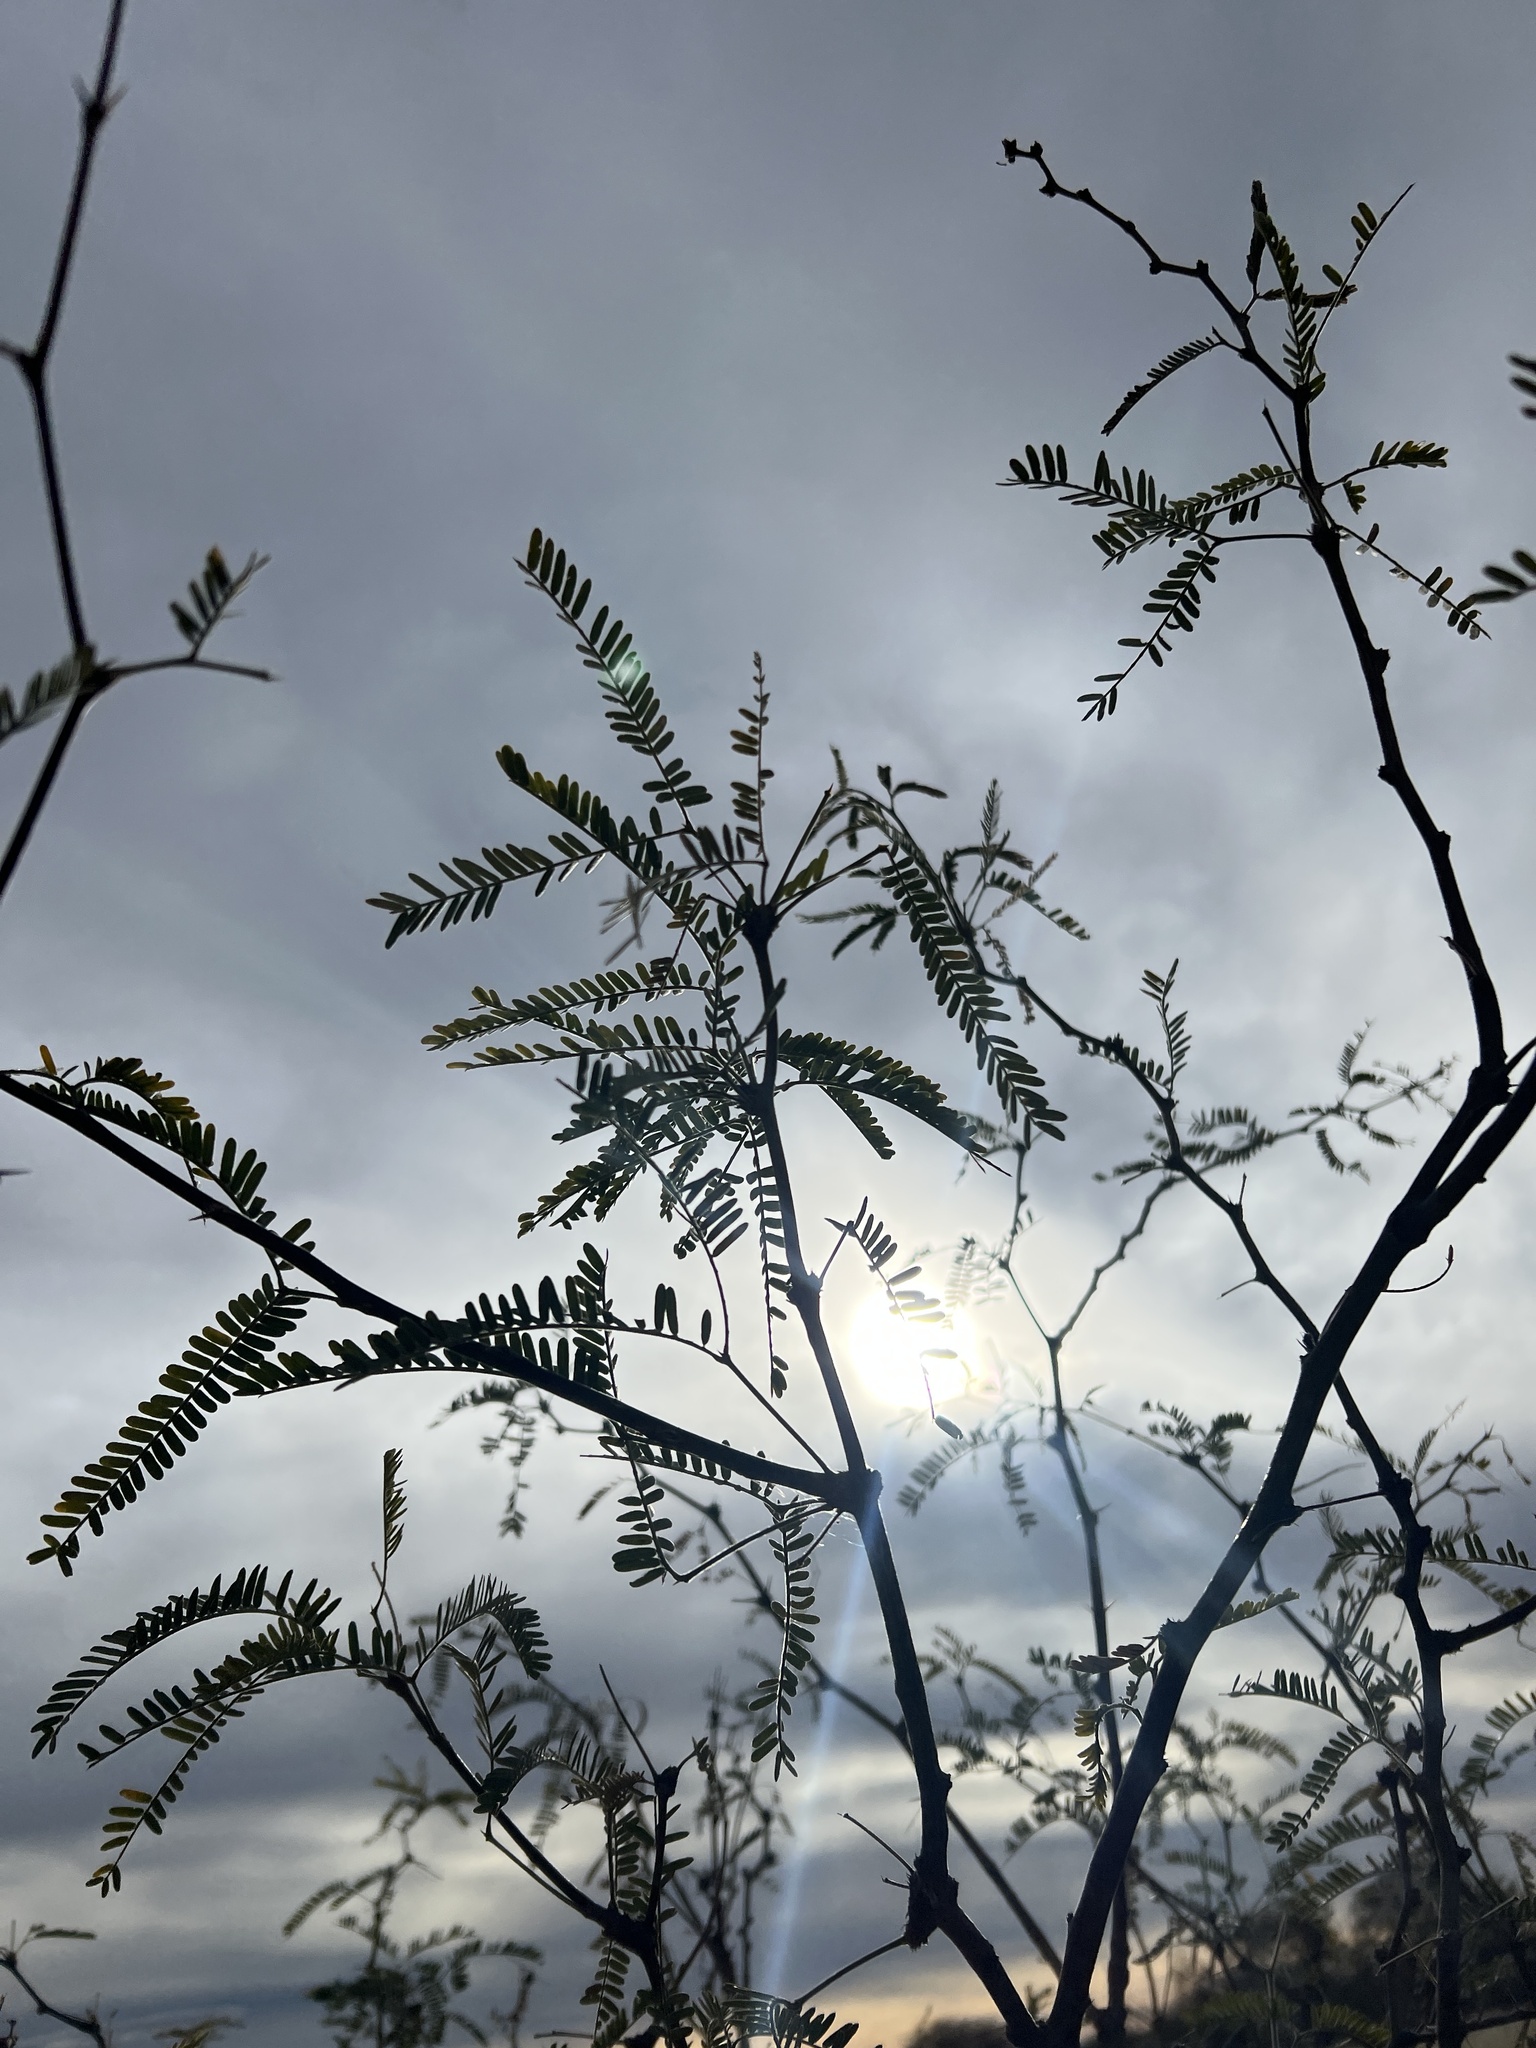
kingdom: Plantae
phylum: Tracheophyta
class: Magnoliopsida
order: Fabales
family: Fabaceae
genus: Prosopis
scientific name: Prosopis velutina
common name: Velvet mesquite
